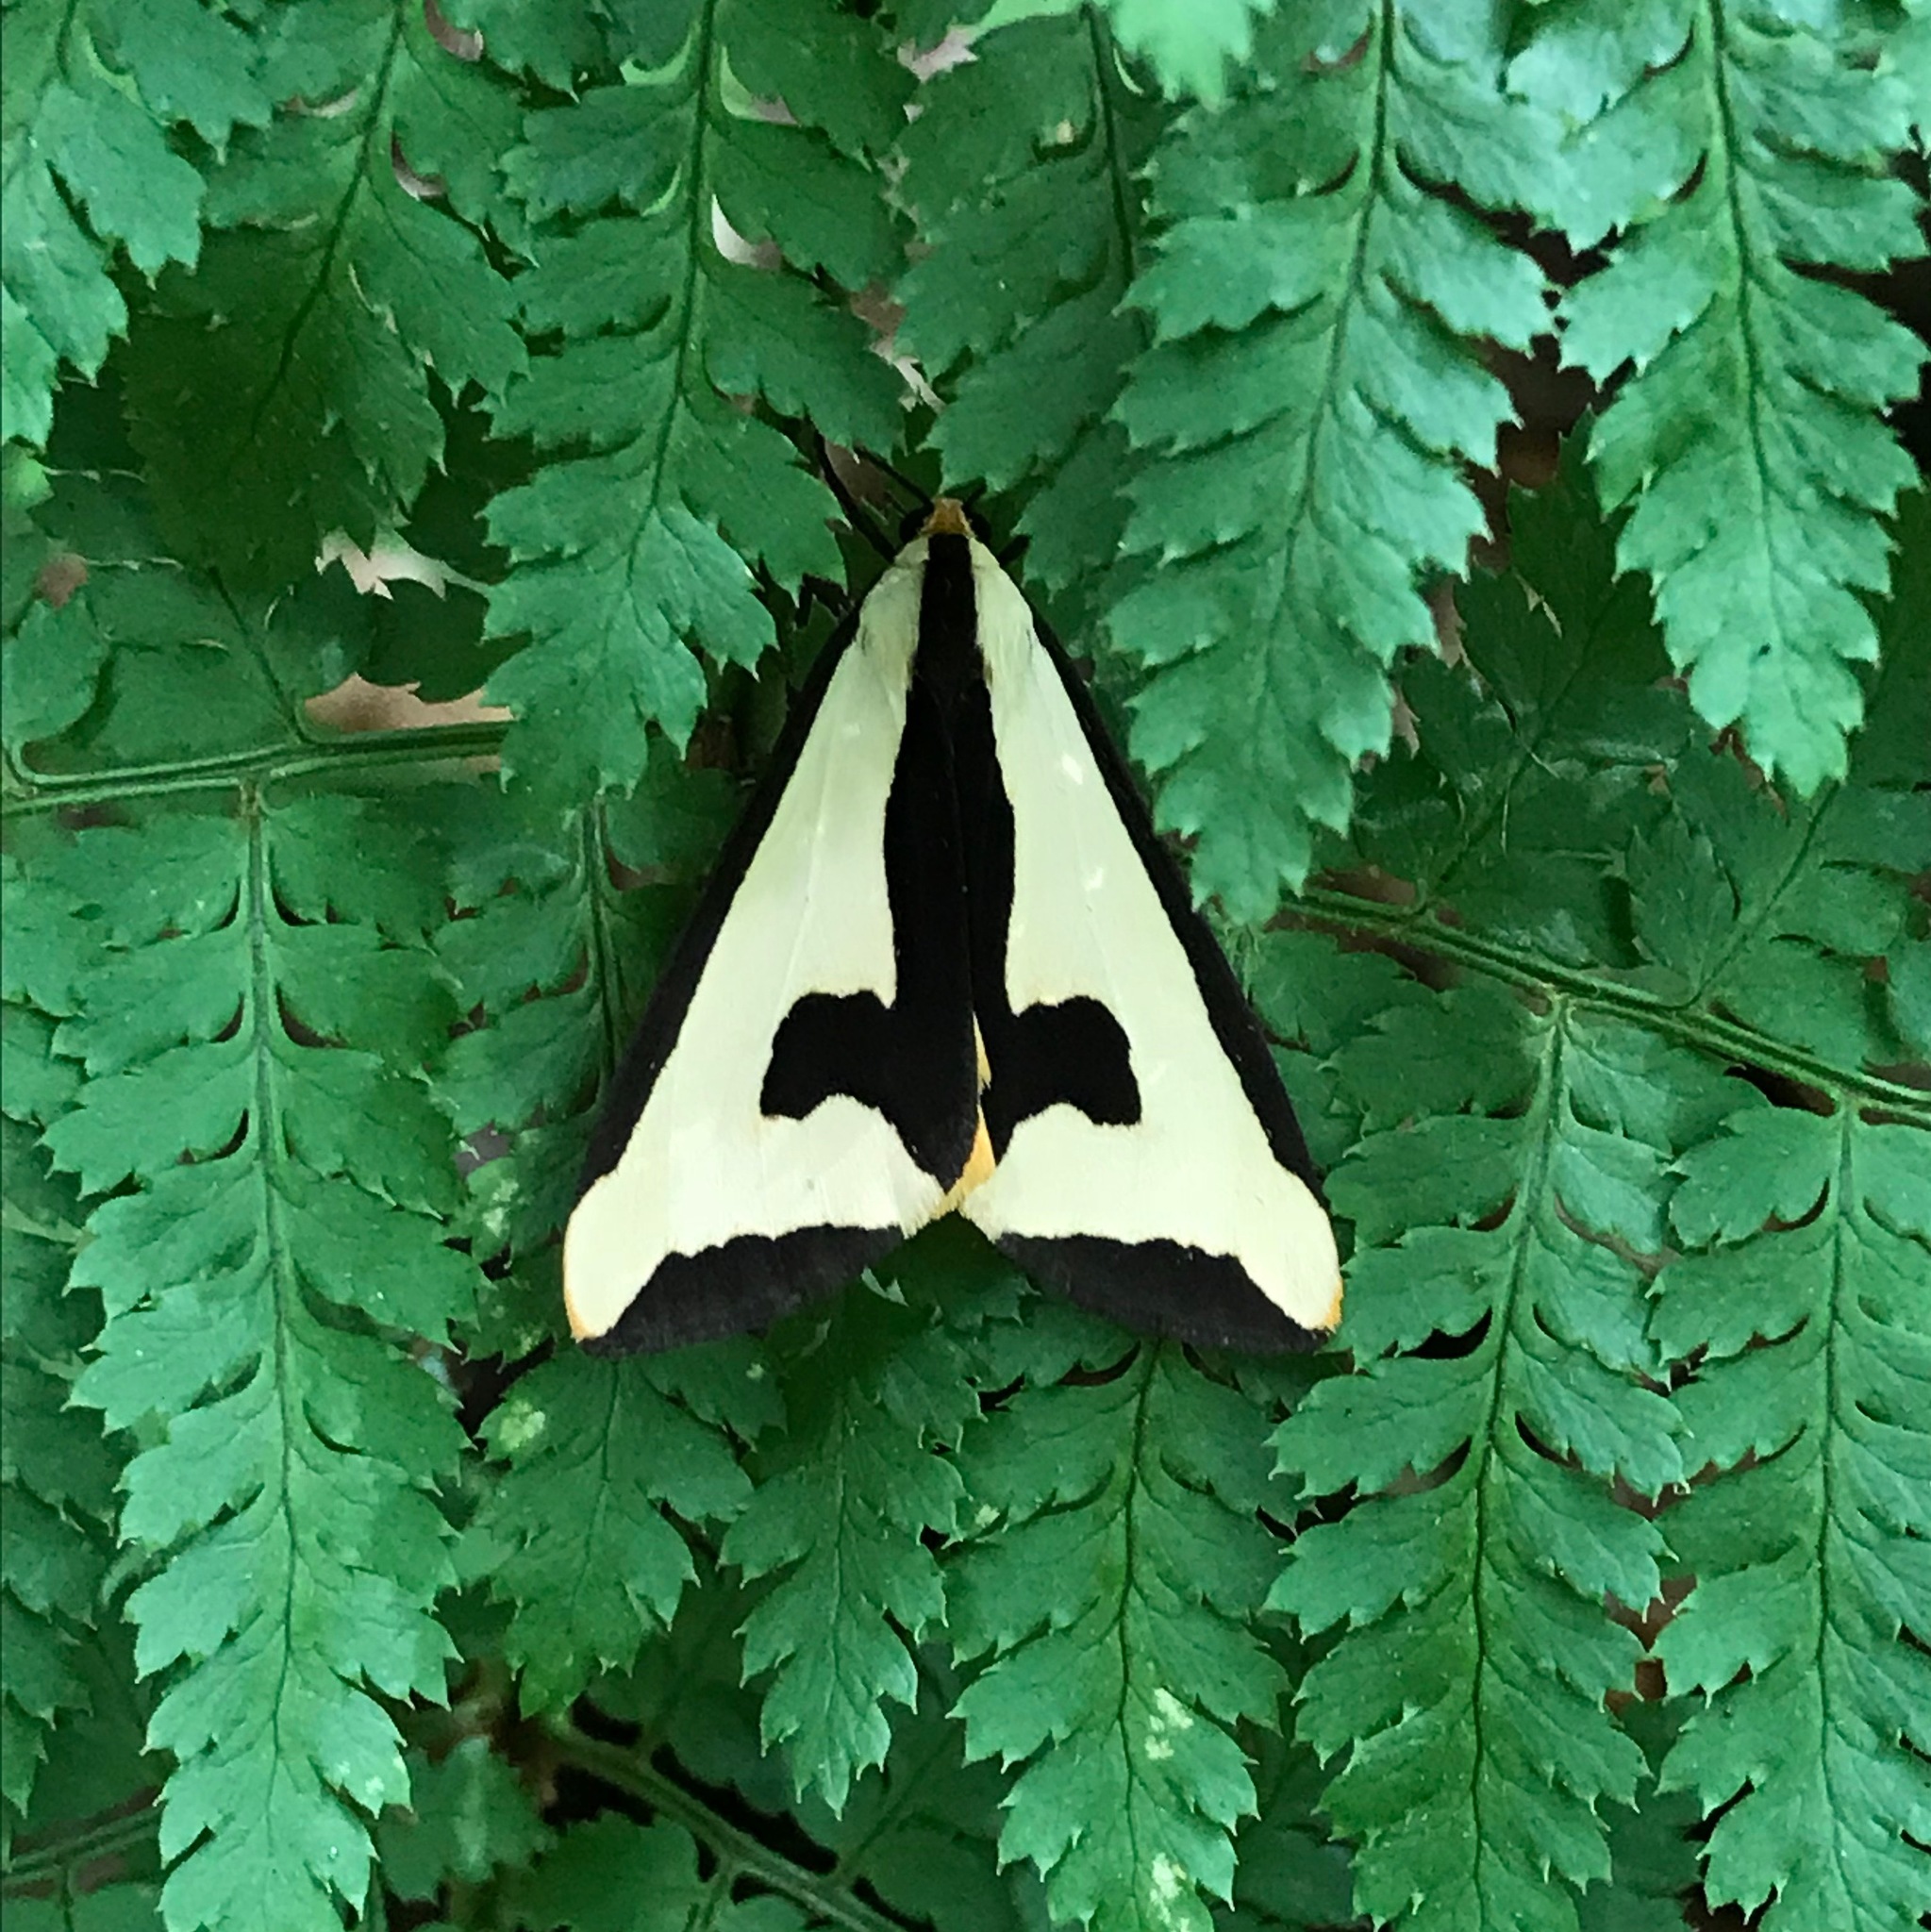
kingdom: Animalia
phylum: Arthropoda
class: Insecta
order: Lepidoptera
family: Erebidae
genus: Haploa
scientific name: Haploa clymene
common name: Clymene moth
